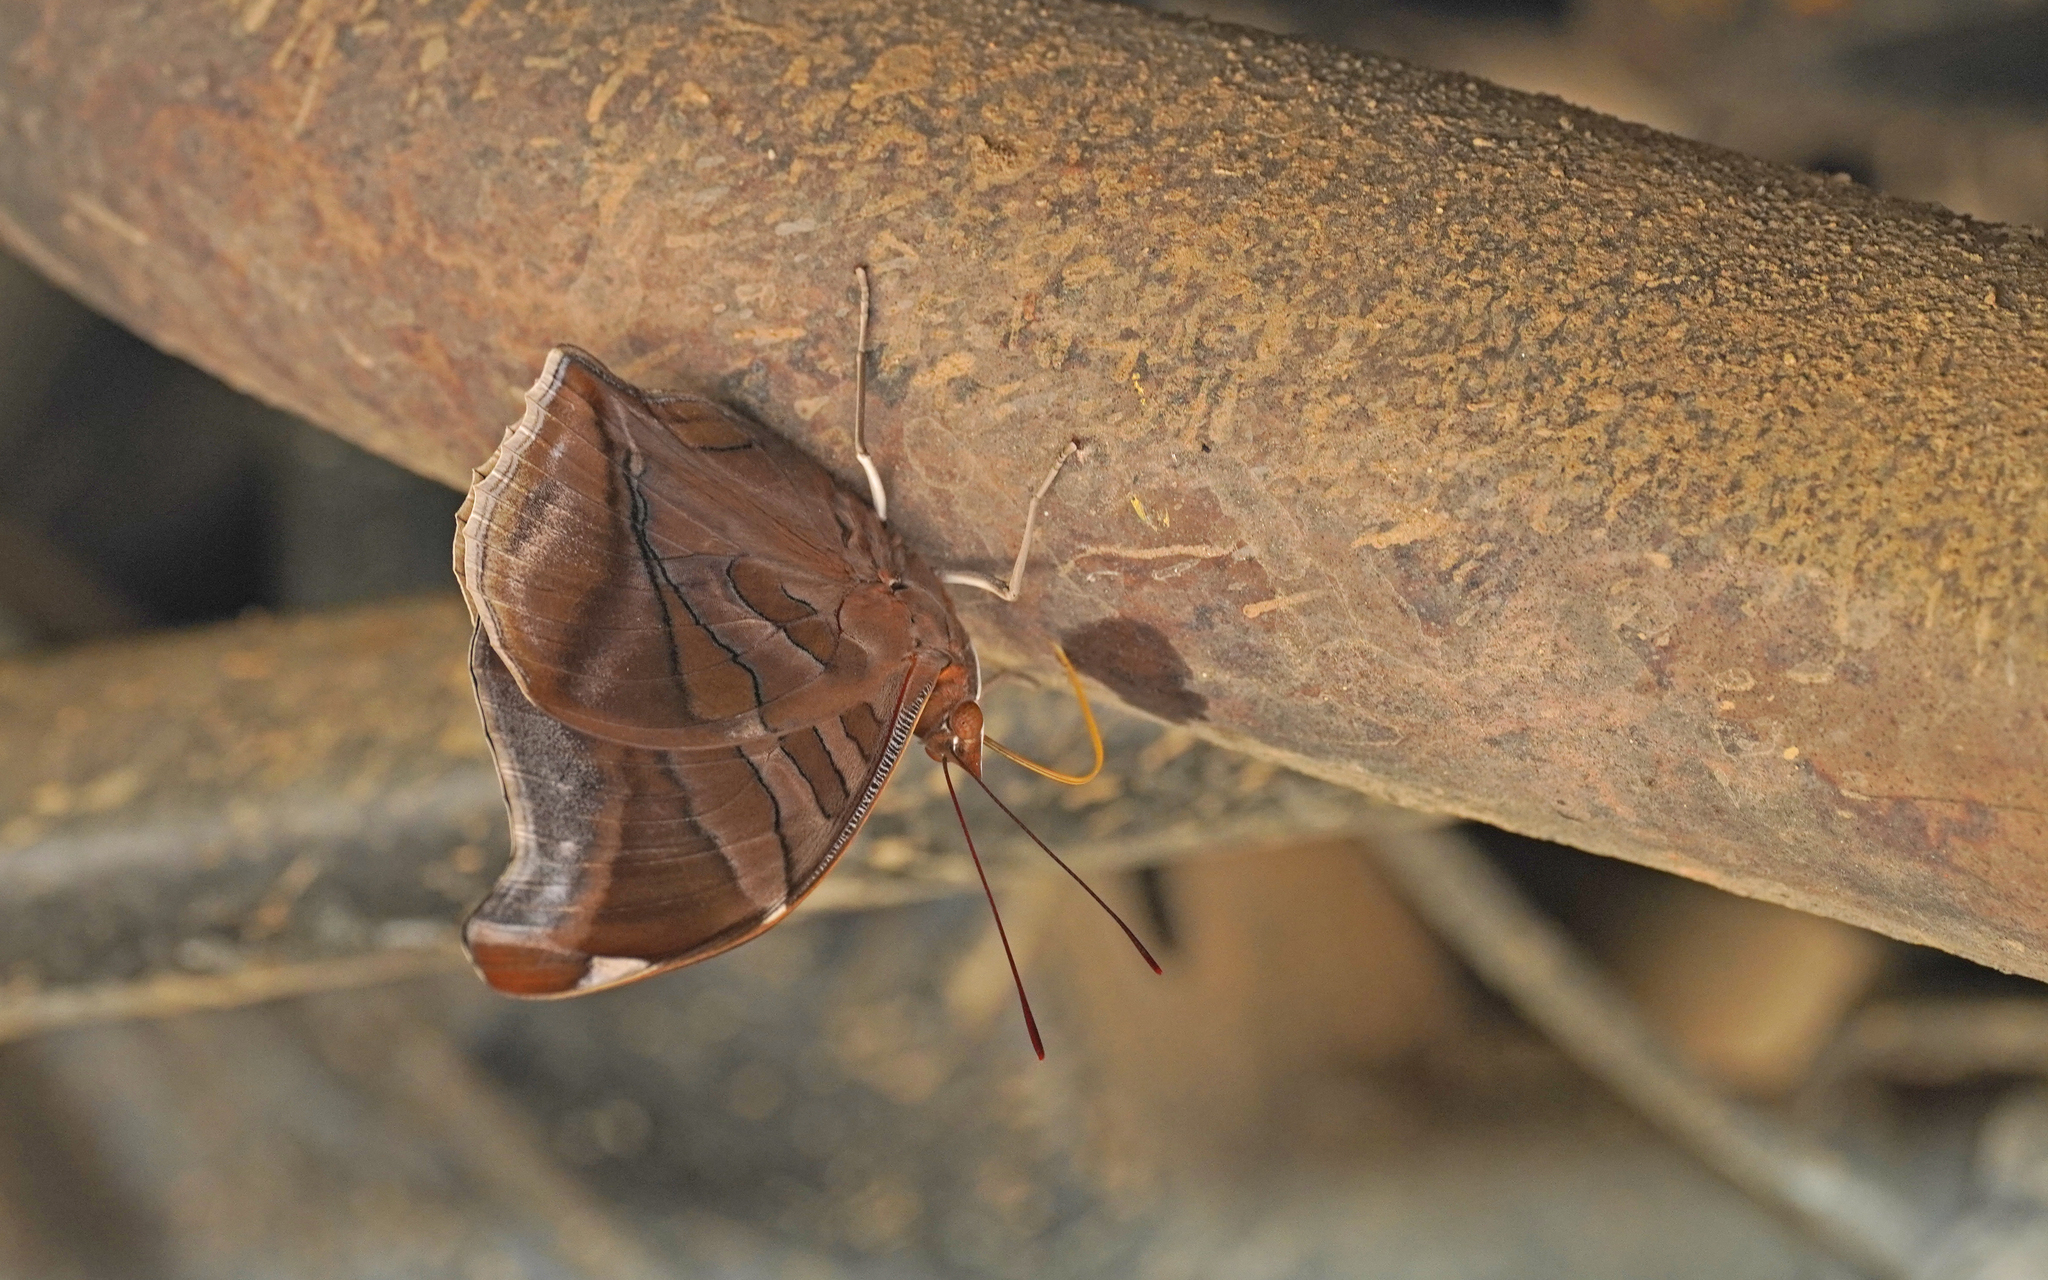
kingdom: Animalia
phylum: Arthropoda
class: Insecta
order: Lepidoptera
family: Nymphalidae
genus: Historis
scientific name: Historis odius
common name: Orion cecropian
